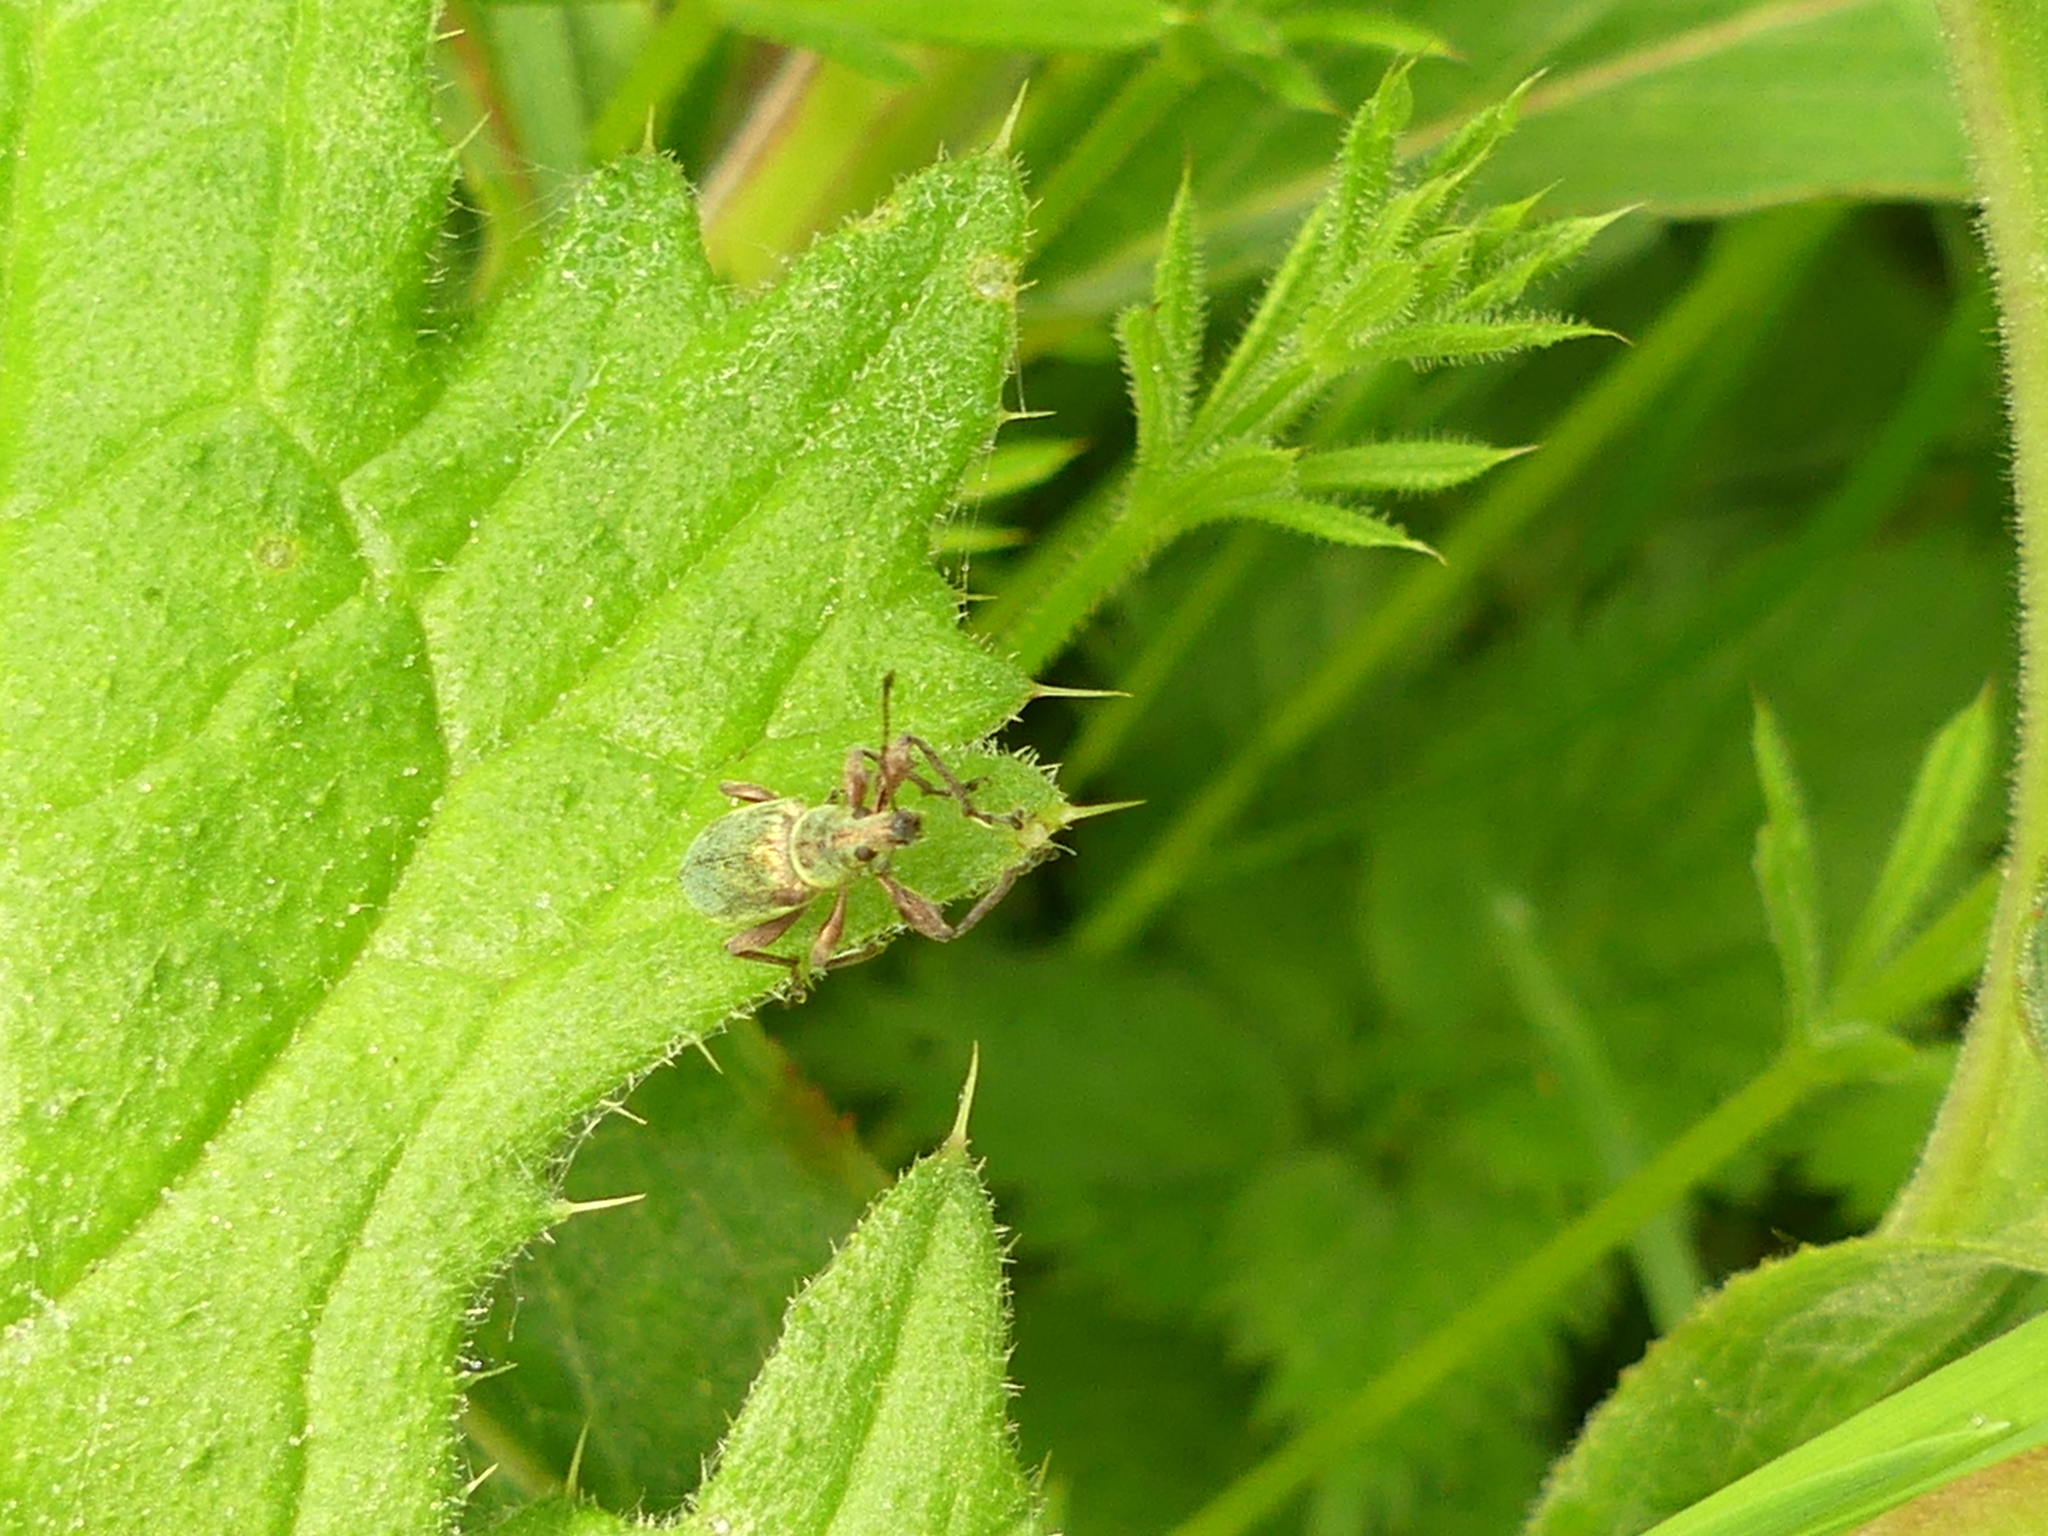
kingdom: Animalia
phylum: Arthropoda
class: Insecta
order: Coleoptera
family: Curculionidae
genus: Phyllobius
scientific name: Phyllobius pomaceus
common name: Green nettle weevil
